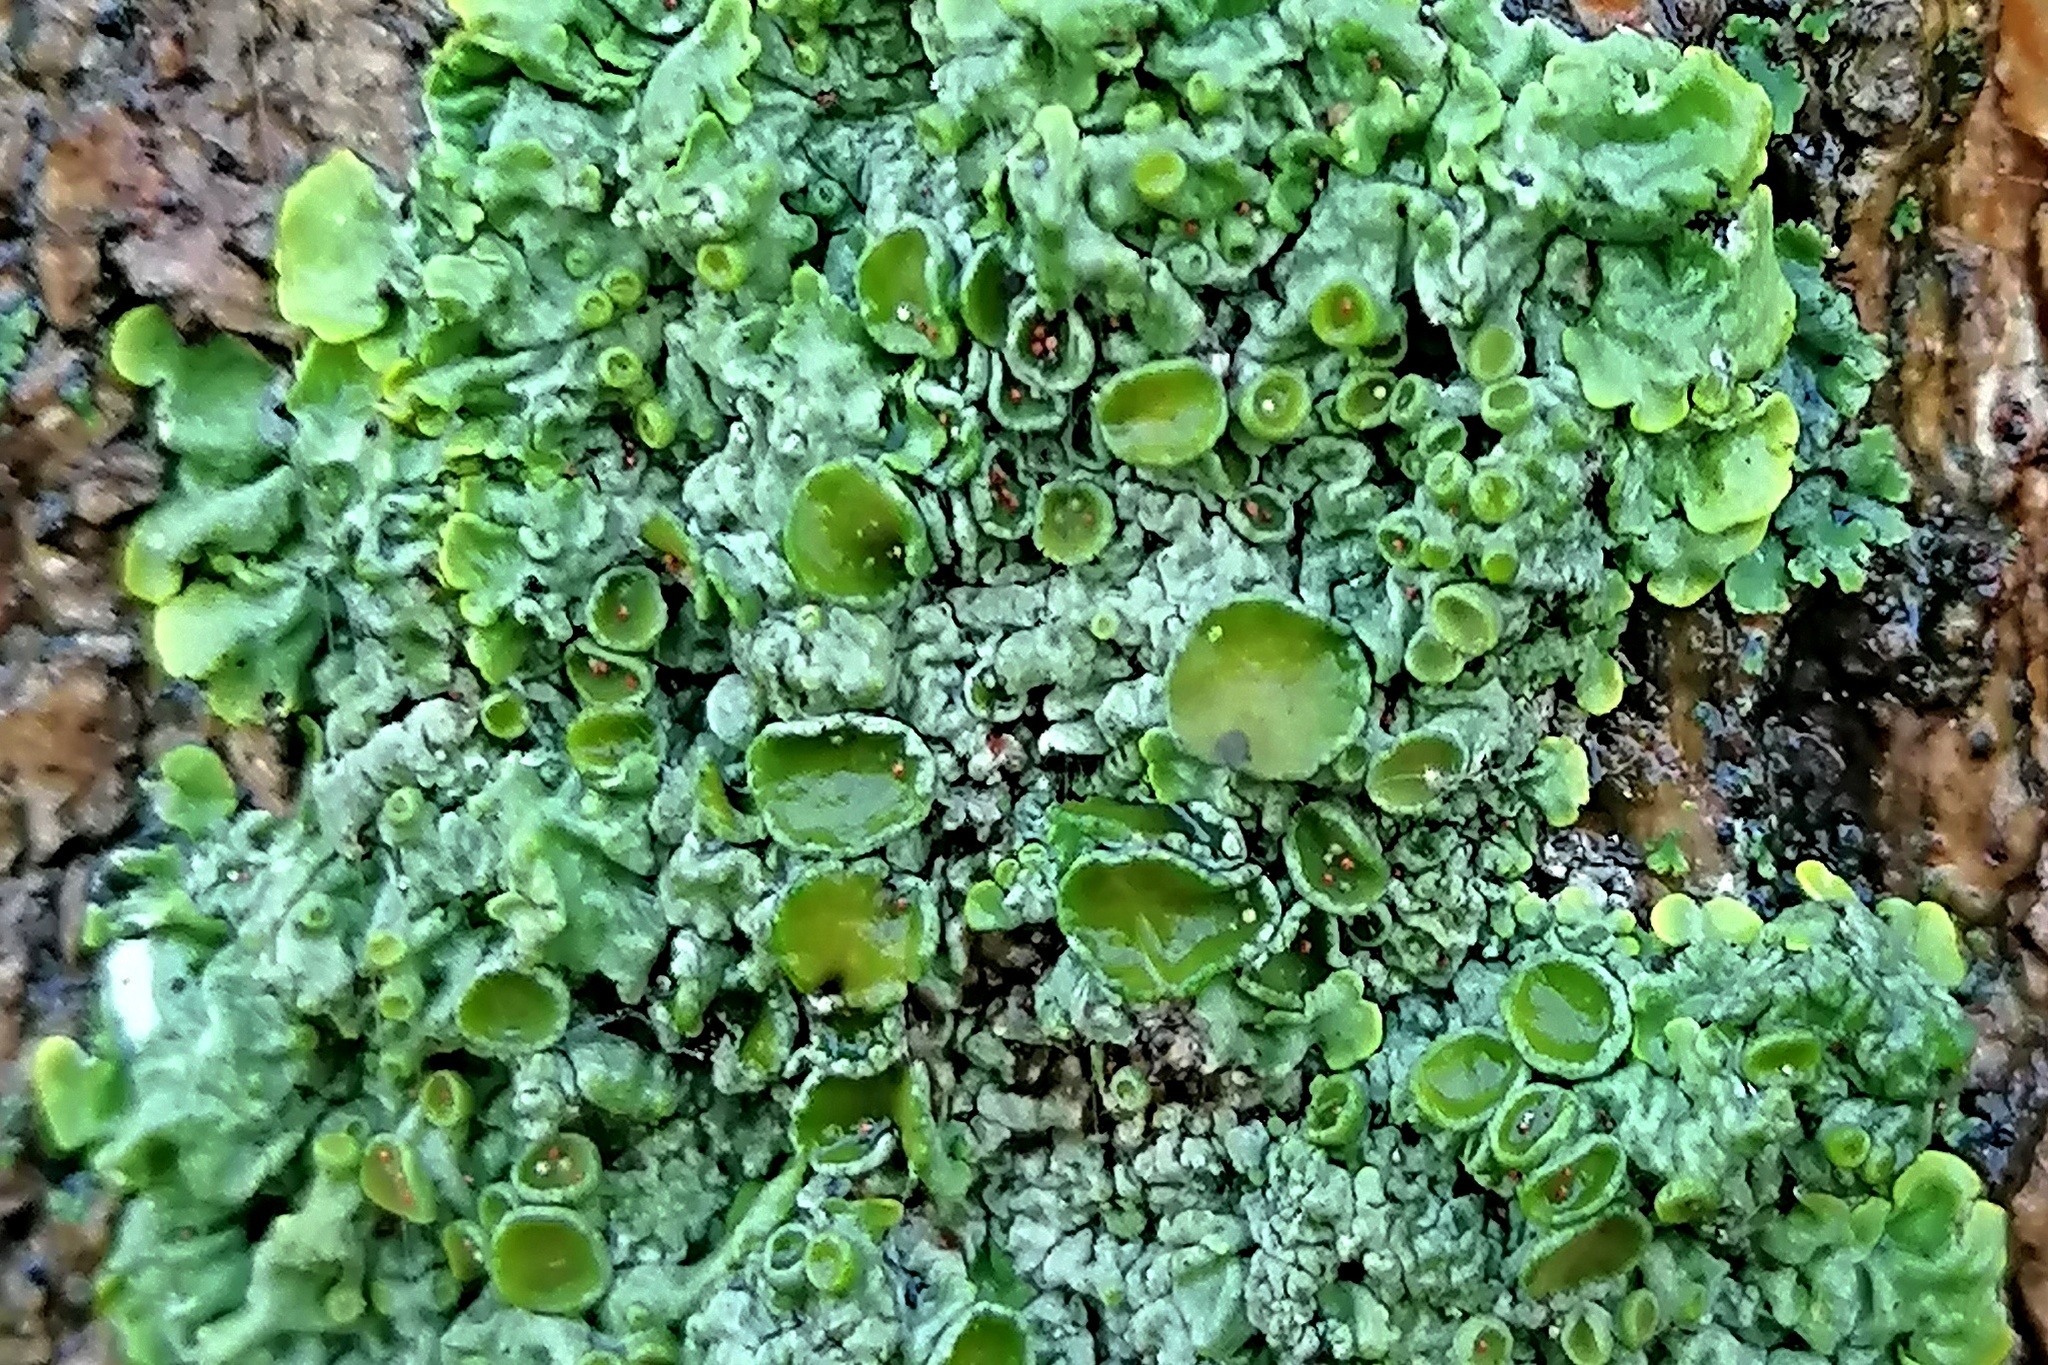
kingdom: Fungi
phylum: Ascomycota
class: Lecanoromycetes
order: Teloschistales
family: Teloschistaceae
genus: Xanthoria
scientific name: Xanthoria parietina
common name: Common orange lichen
